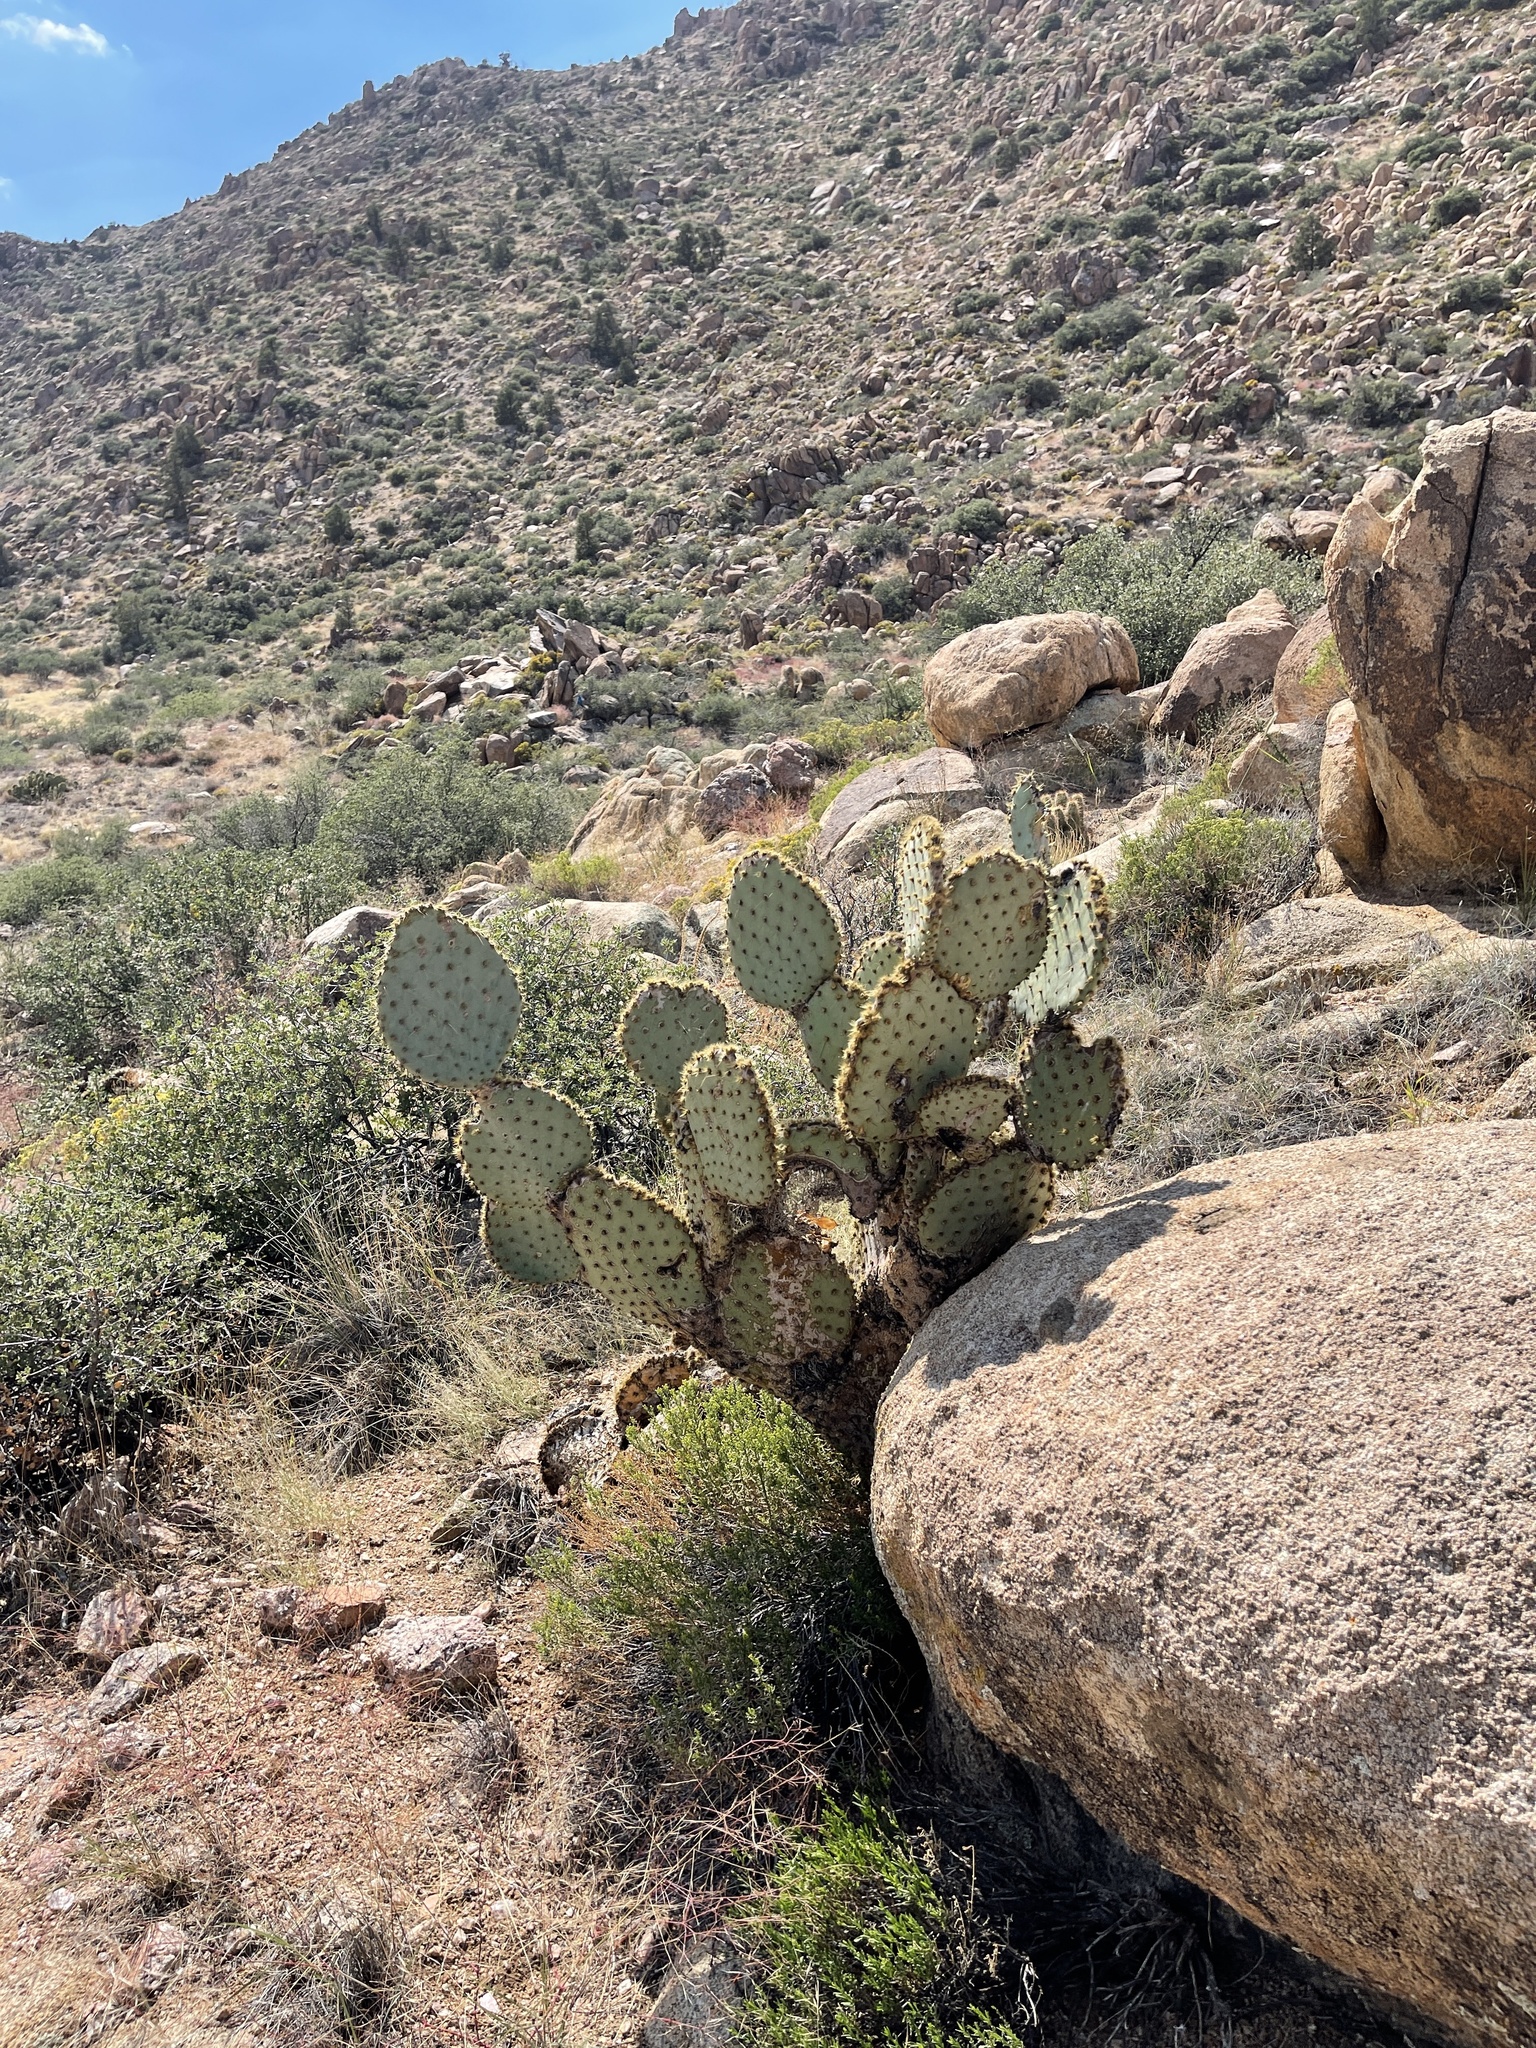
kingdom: Plantae
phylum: Tracheophyta
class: Magnoliopsida
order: Caryophyllales
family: Cactaceae
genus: Opuntia
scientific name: Opuntia chlorotica
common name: Dollar-joint prickly-pear
